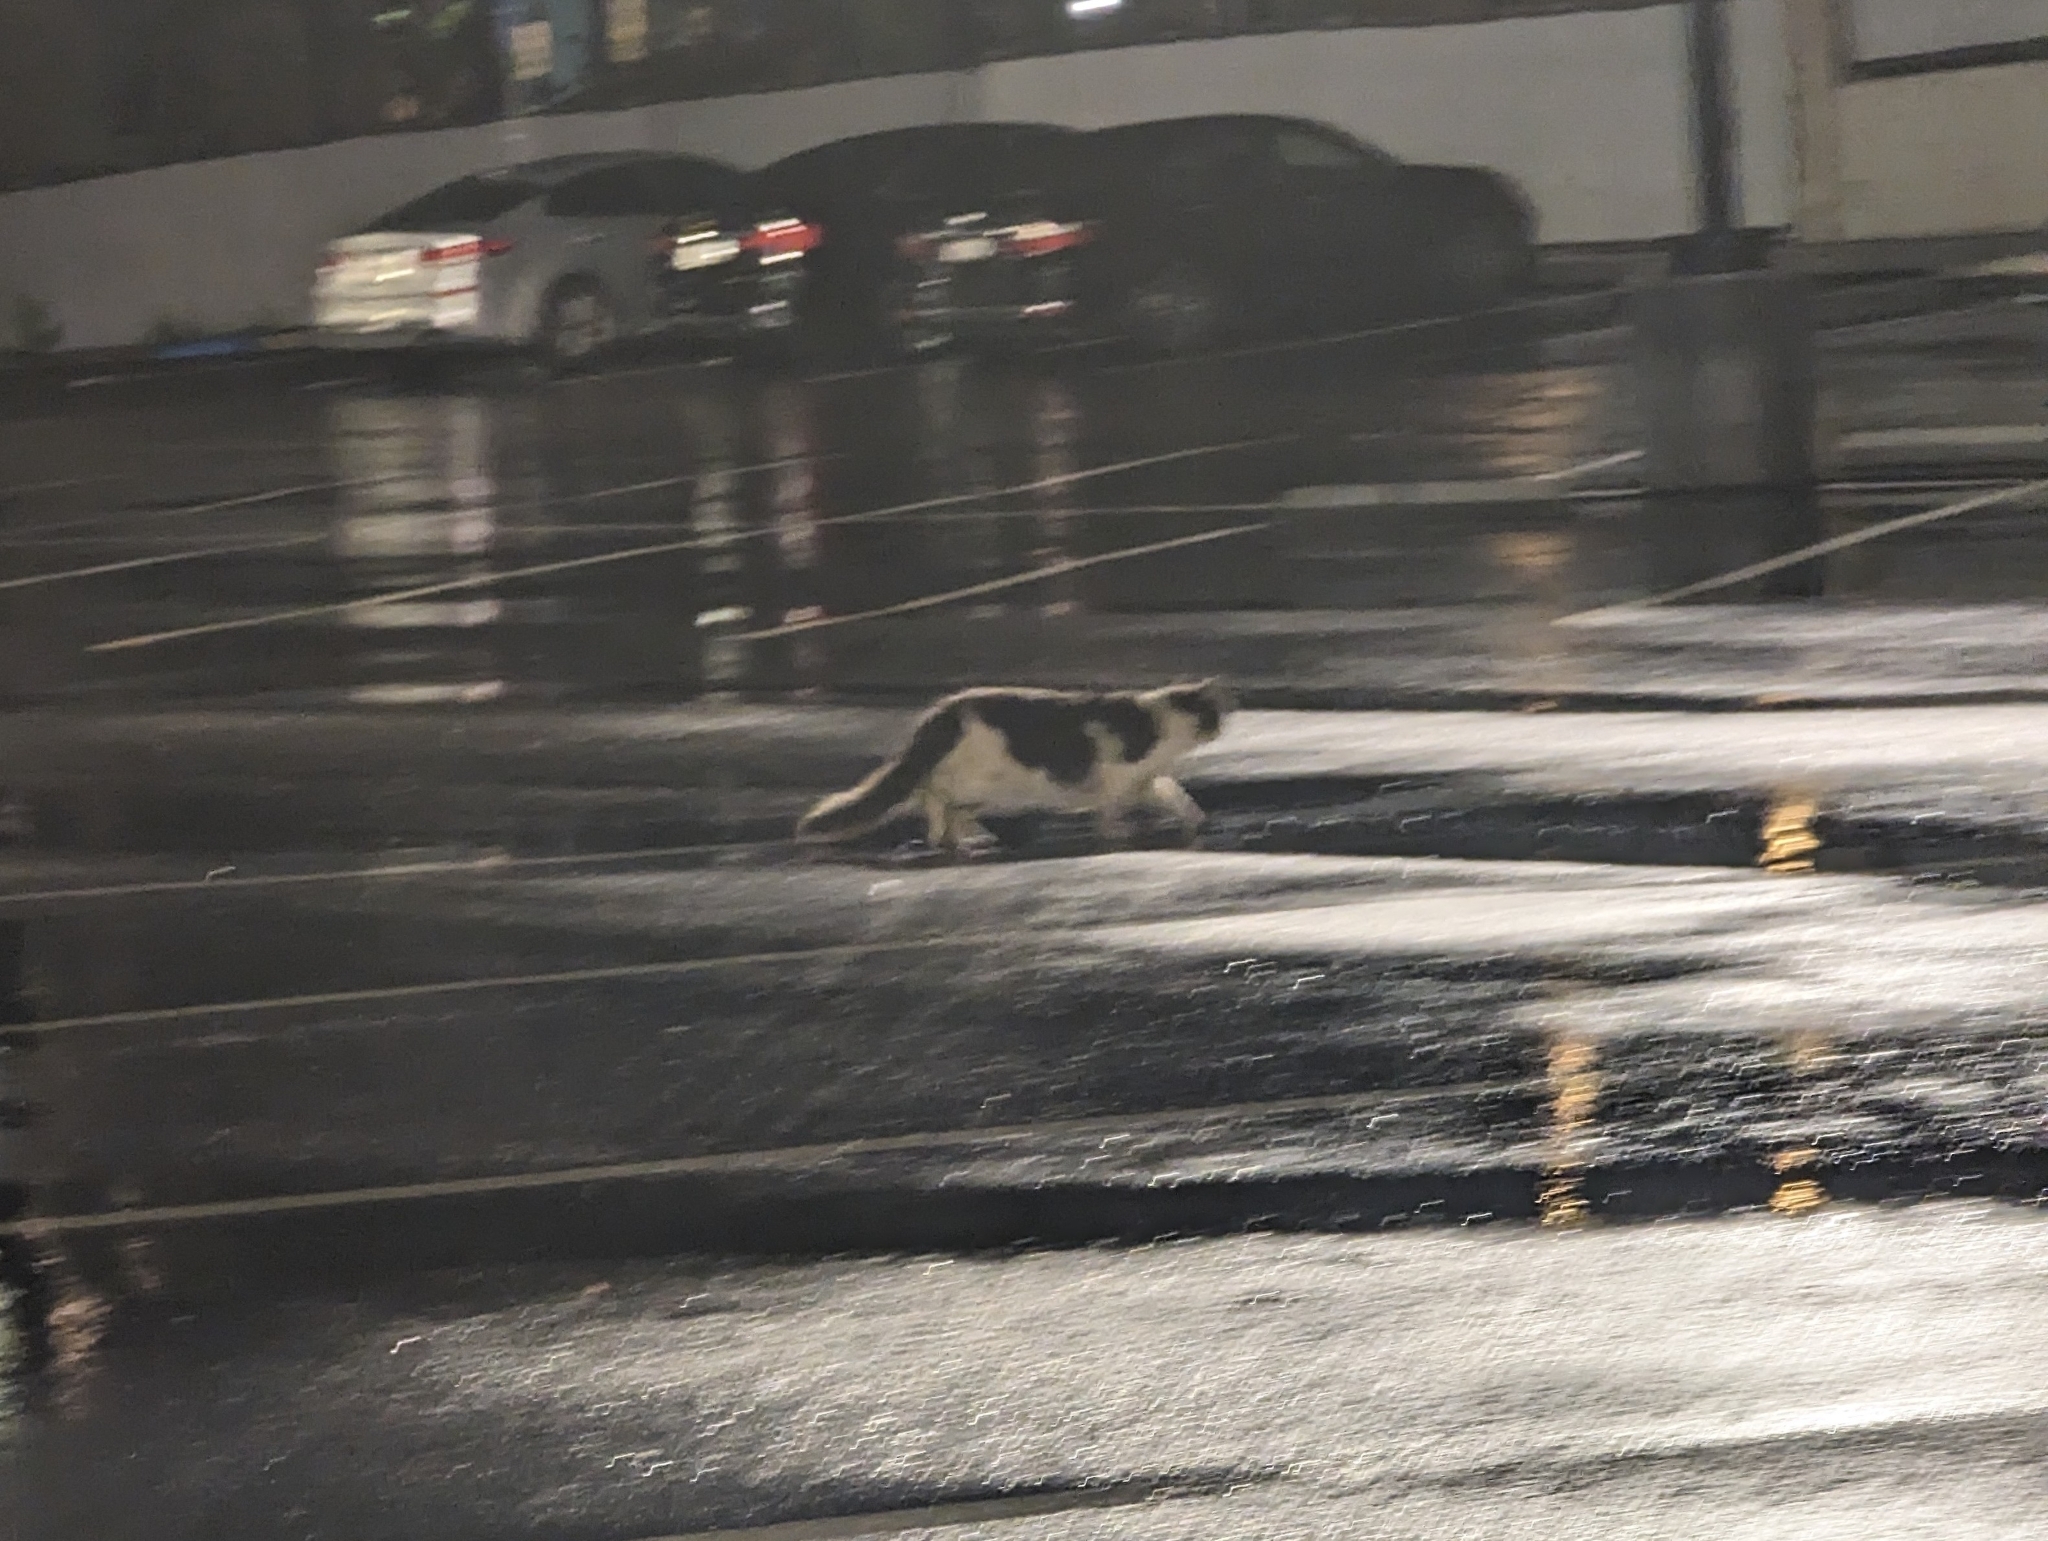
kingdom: Animalia
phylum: Chordata
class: Mammalia
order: Carnivora
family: Felidae
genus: Felis
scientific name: Felis catus
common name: Domestic cat
